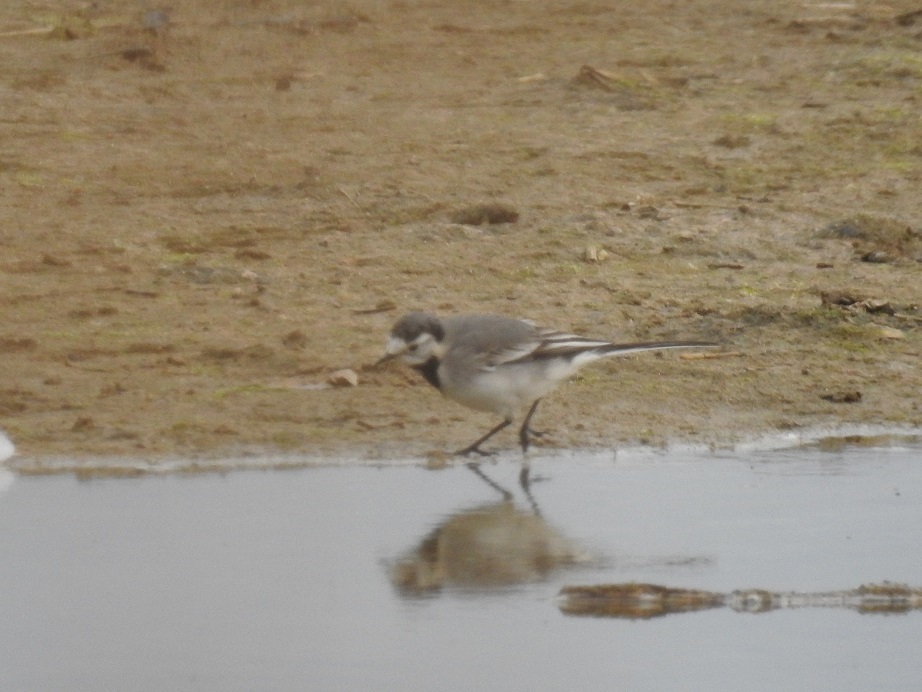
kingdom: Animalia
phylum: Chordata
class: Aves
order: Passeriformes
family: Motacillidae
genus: Motacilla
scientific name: Motacilla alba
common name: White wagtail
